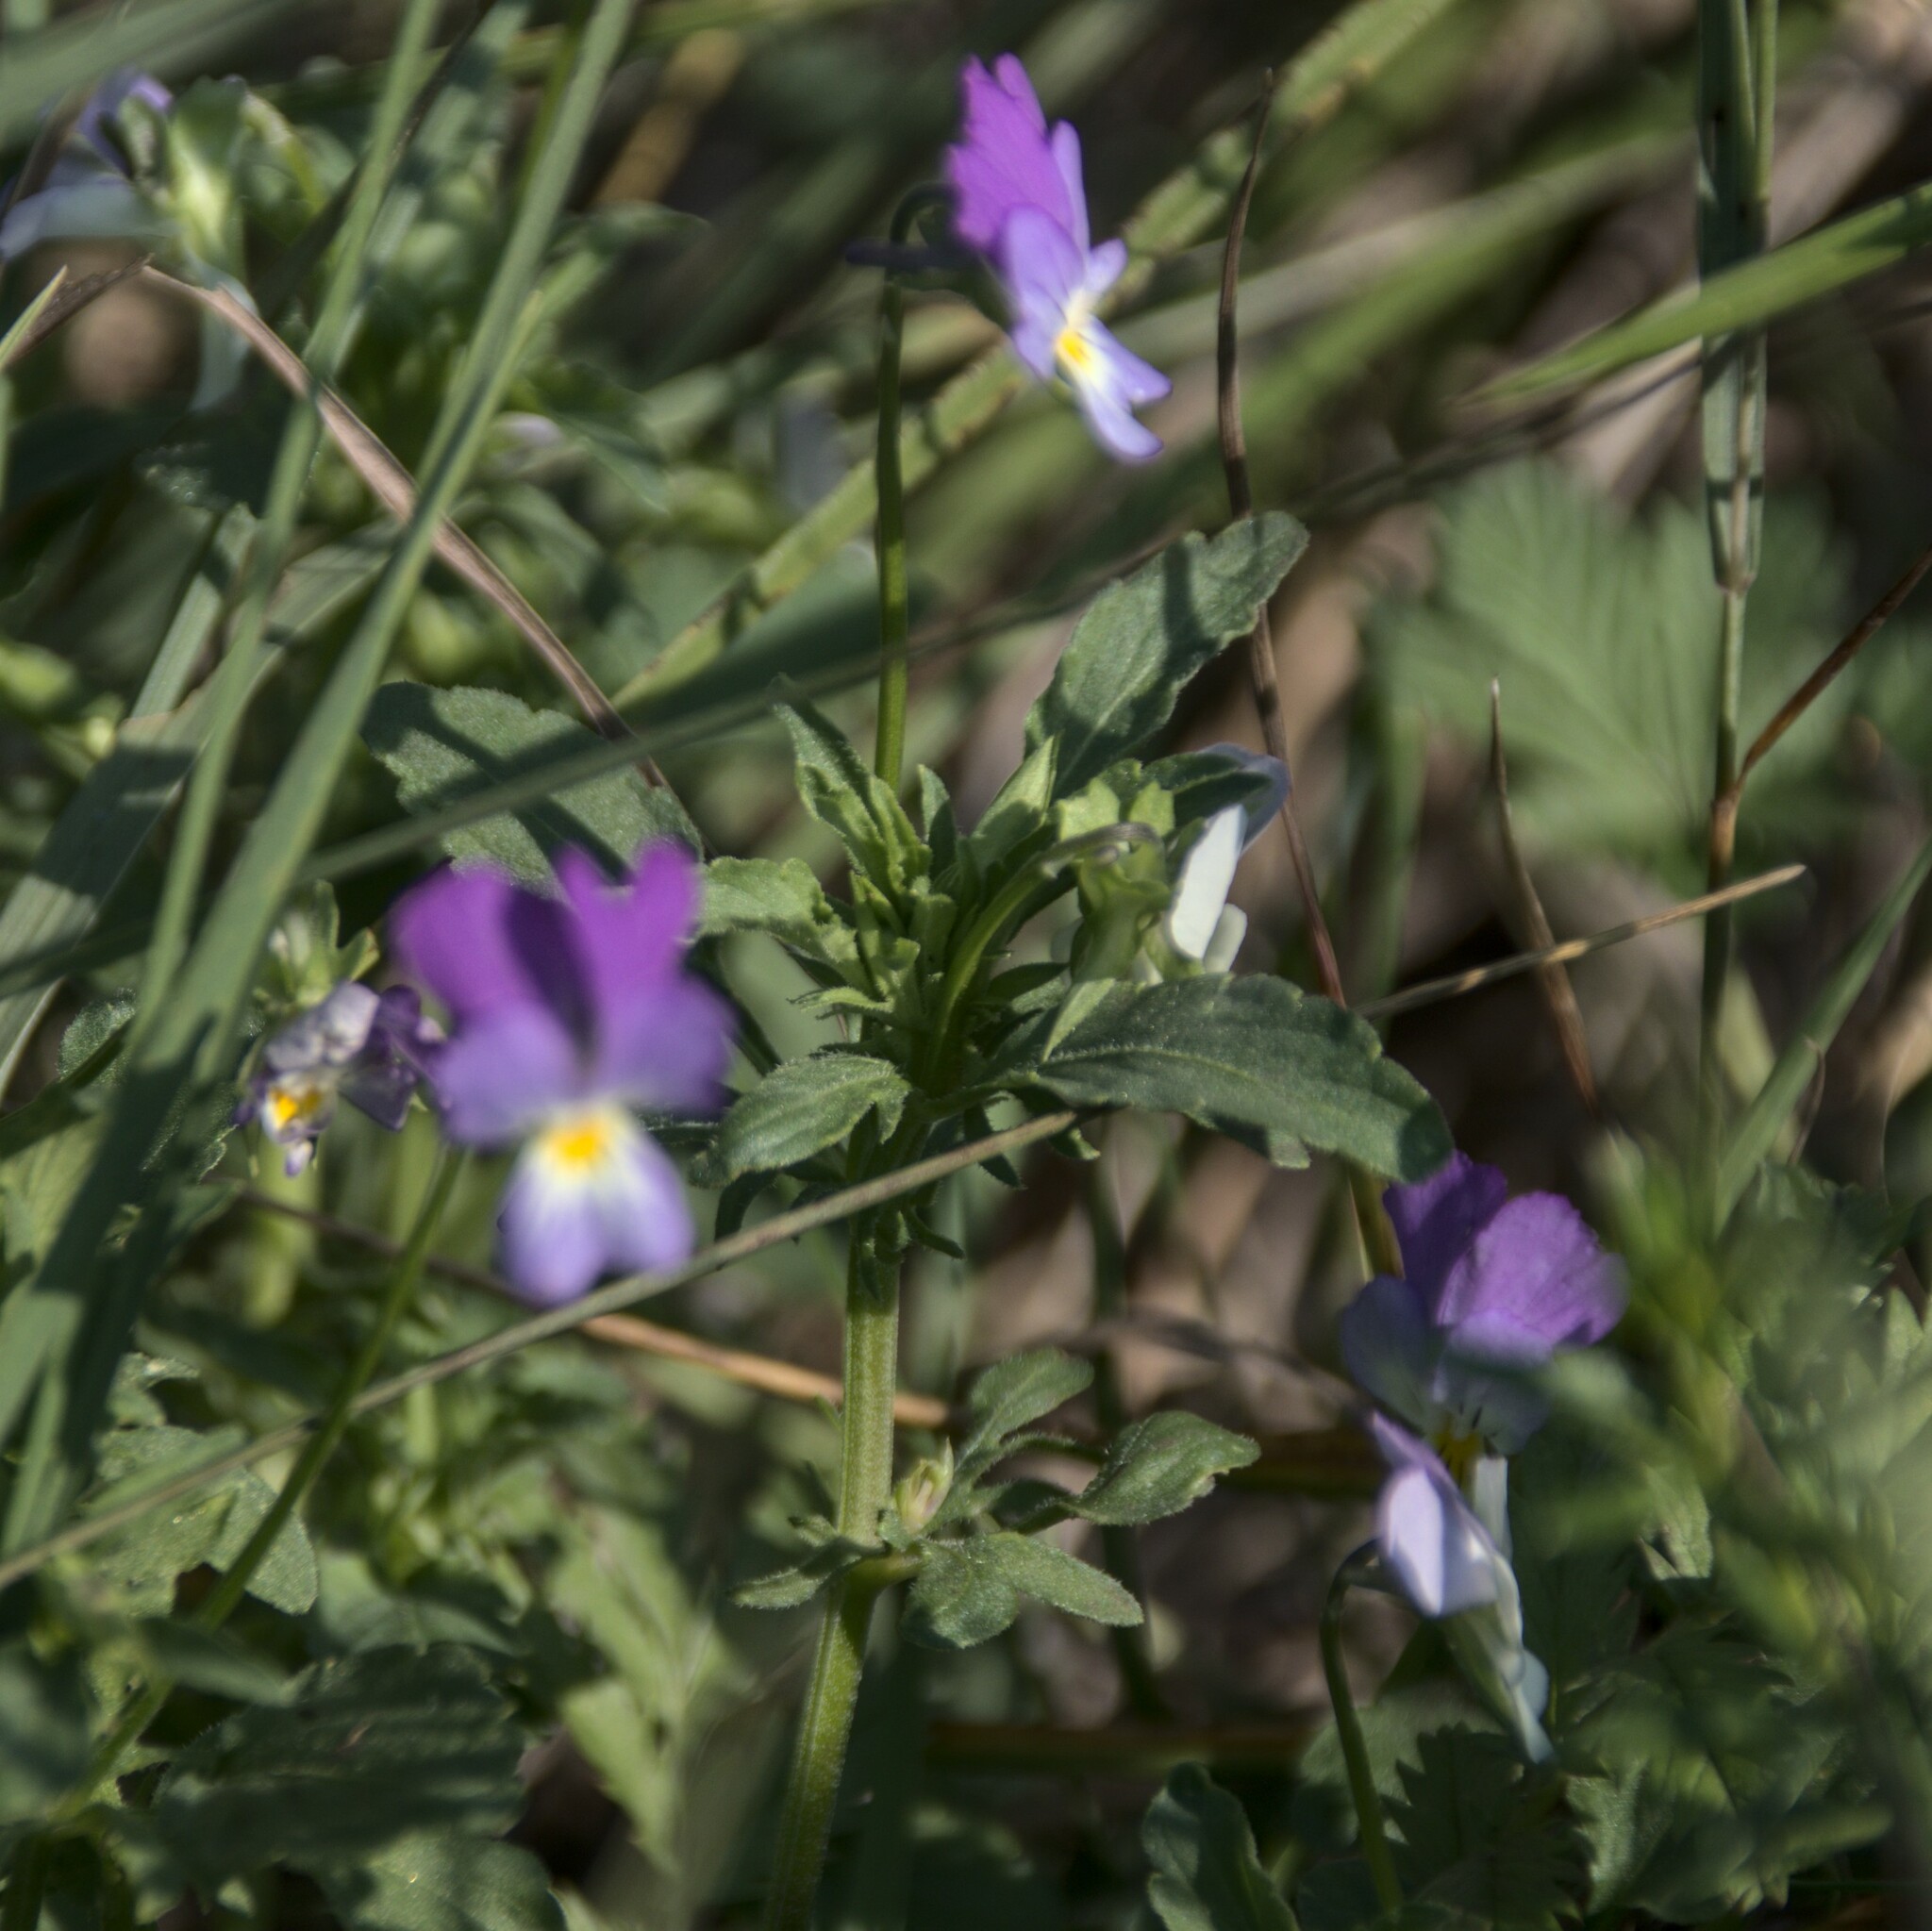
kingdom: Plantae
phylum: Tracheophyta
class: Magnoliopsida
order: Malpighiales
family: Violaceae
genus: Viola
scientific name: Viola tricolor
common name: Pansy
